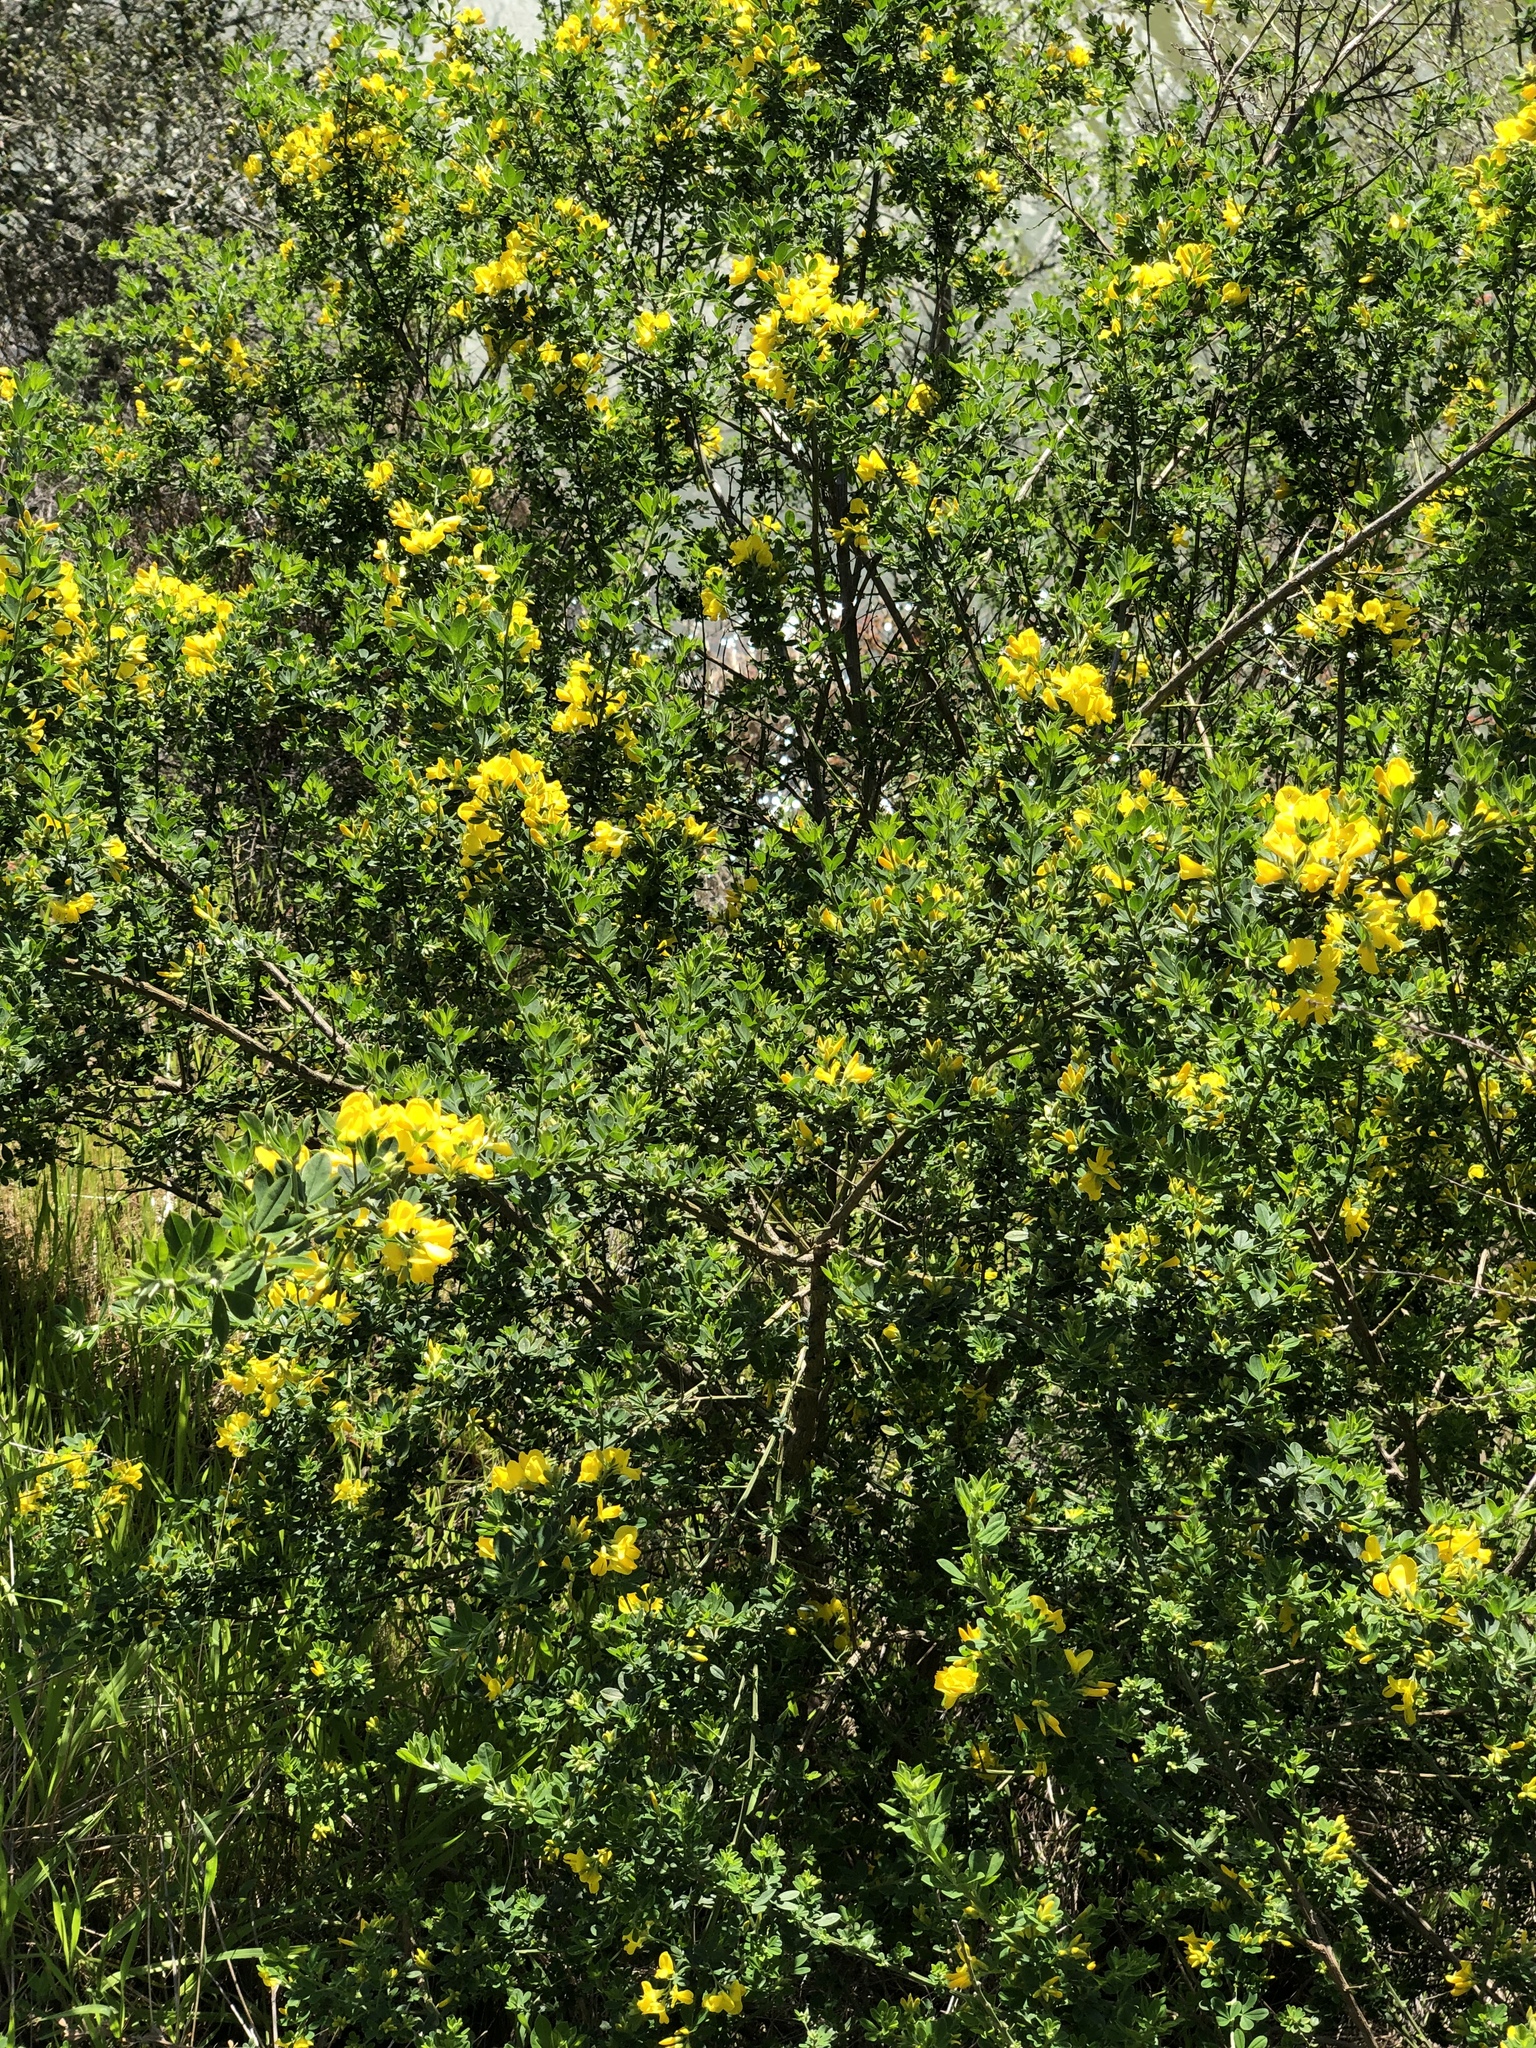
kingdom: Plantae
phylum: Tracheophyta
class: Magnoliopsida
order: Fabales
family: Fabaceae
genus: Genista
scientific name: Genista monspessulana
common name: Montpellier broom
